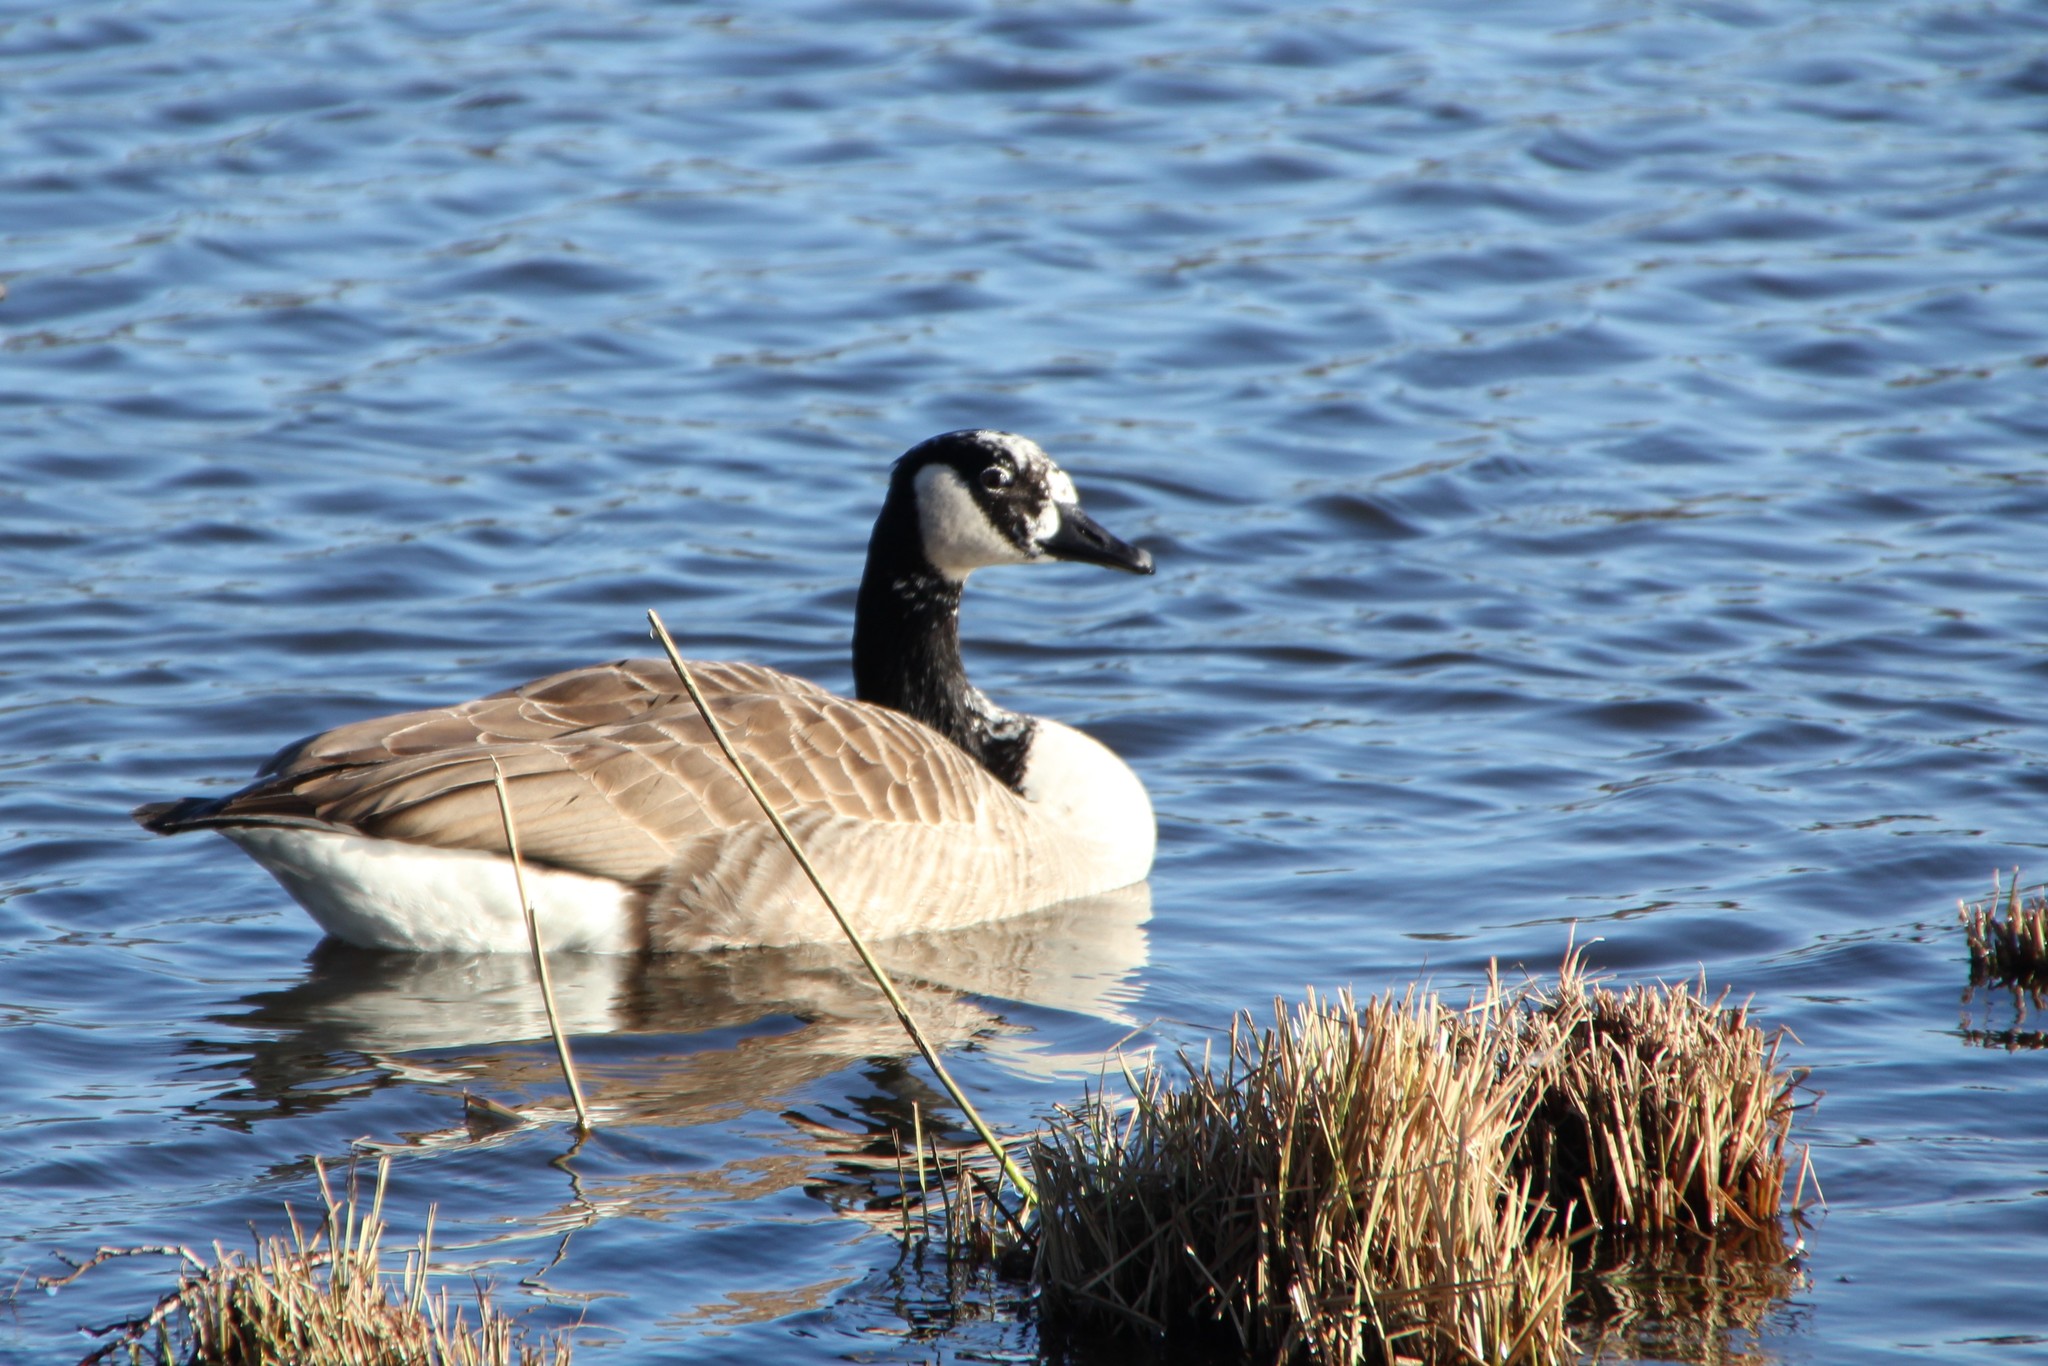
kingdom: Animalia
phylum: Chordata
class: Aves
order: Anseriformes
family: Anatidae
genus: Branta
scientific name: Branta canadensis
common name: Canada goose
